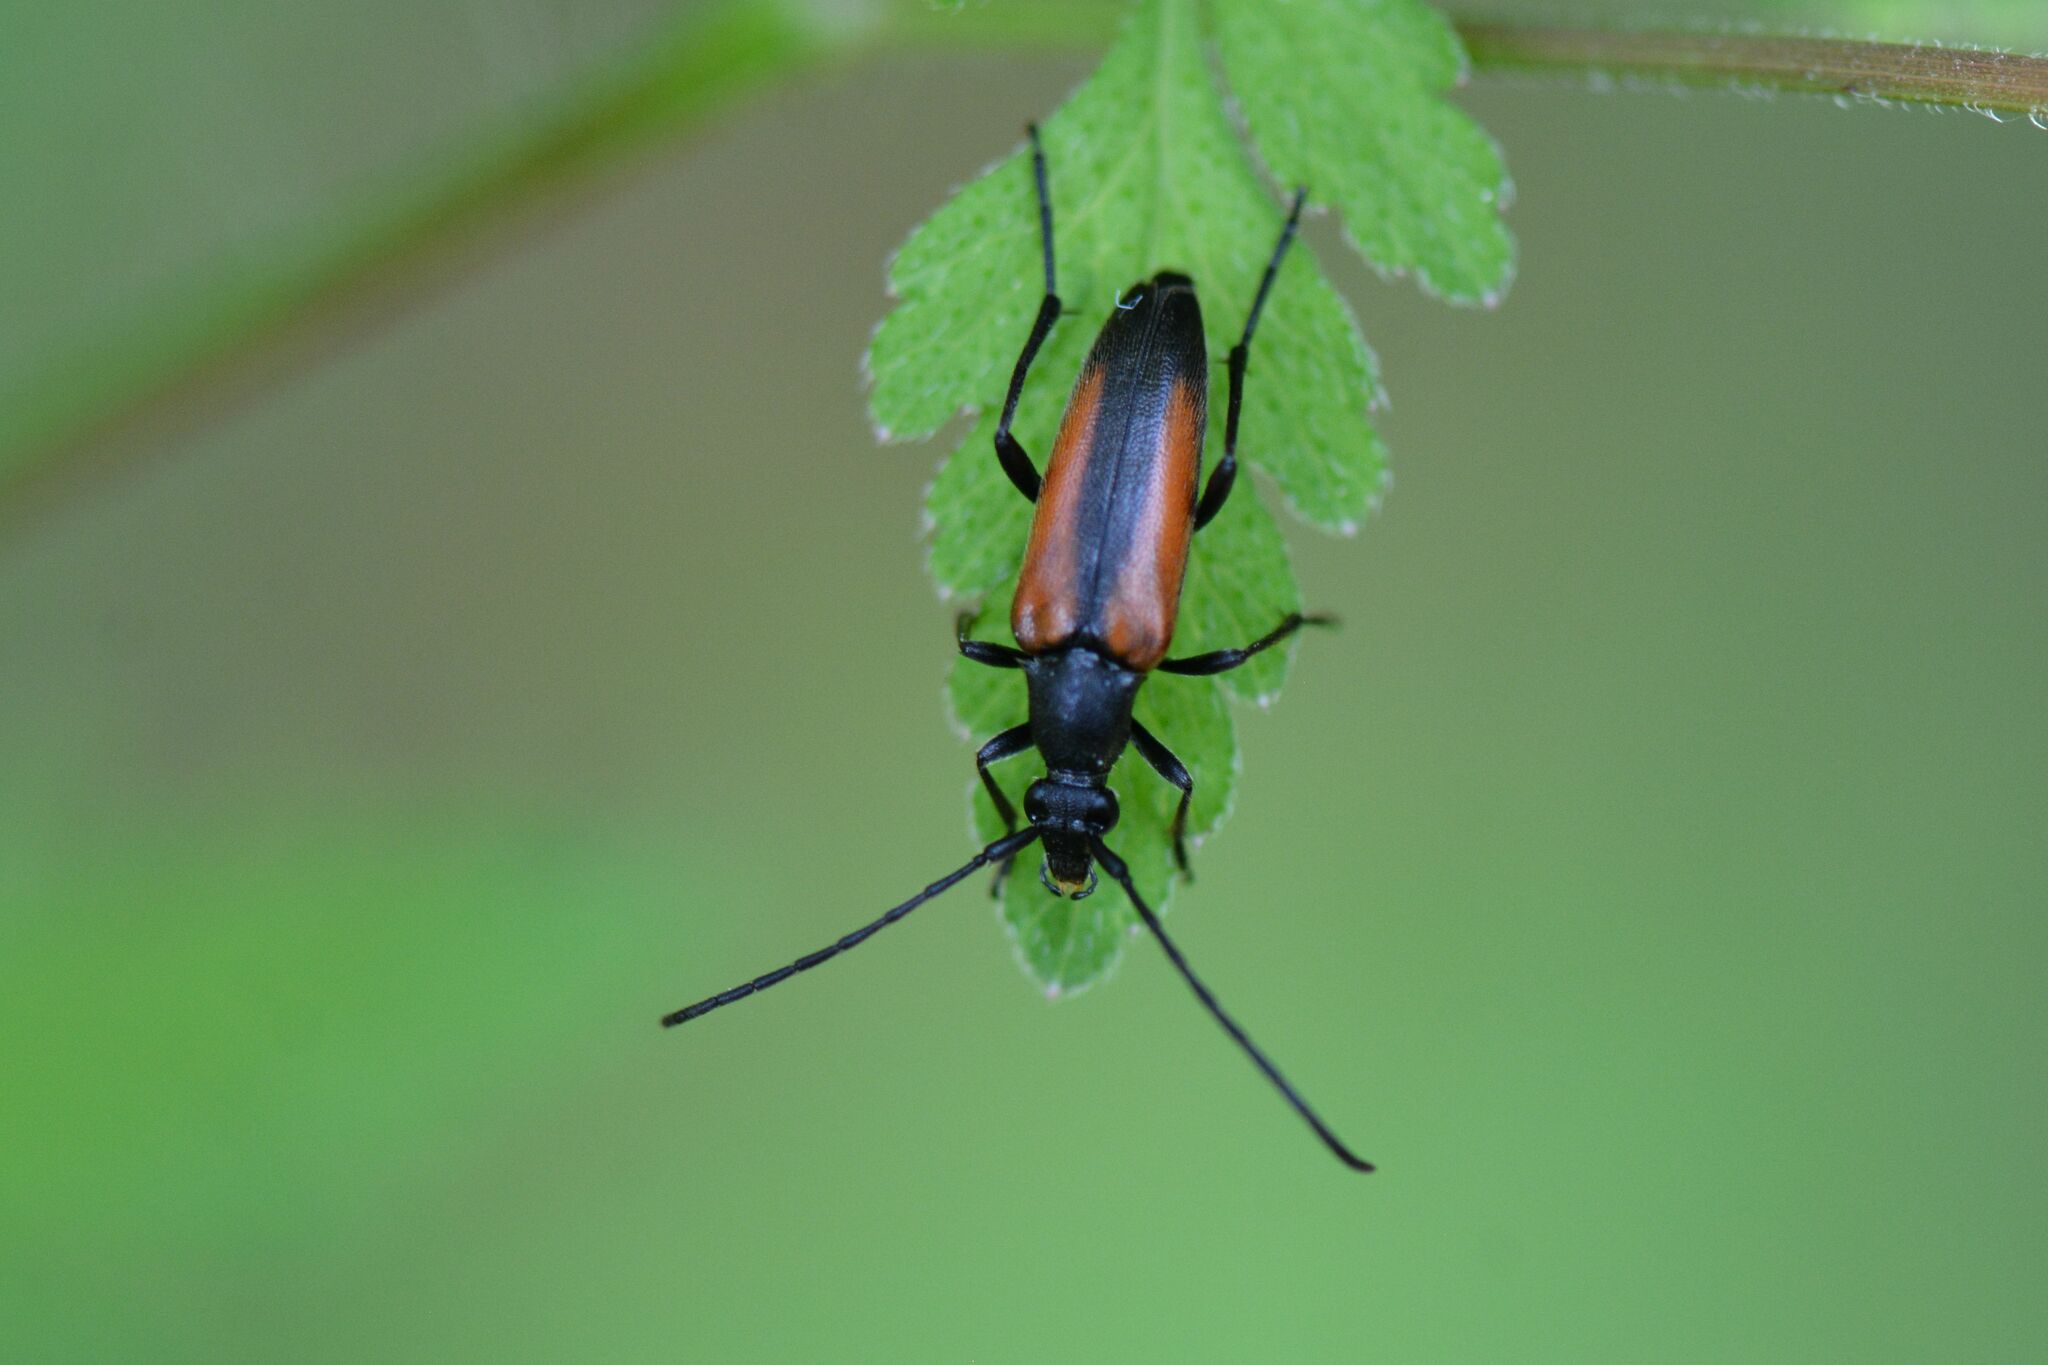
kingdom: Animalia
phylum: Arthropoda
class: Insecta
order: Coleoptera
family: Cerambycidae
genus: Stenurella
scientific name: Stenurella melanura
